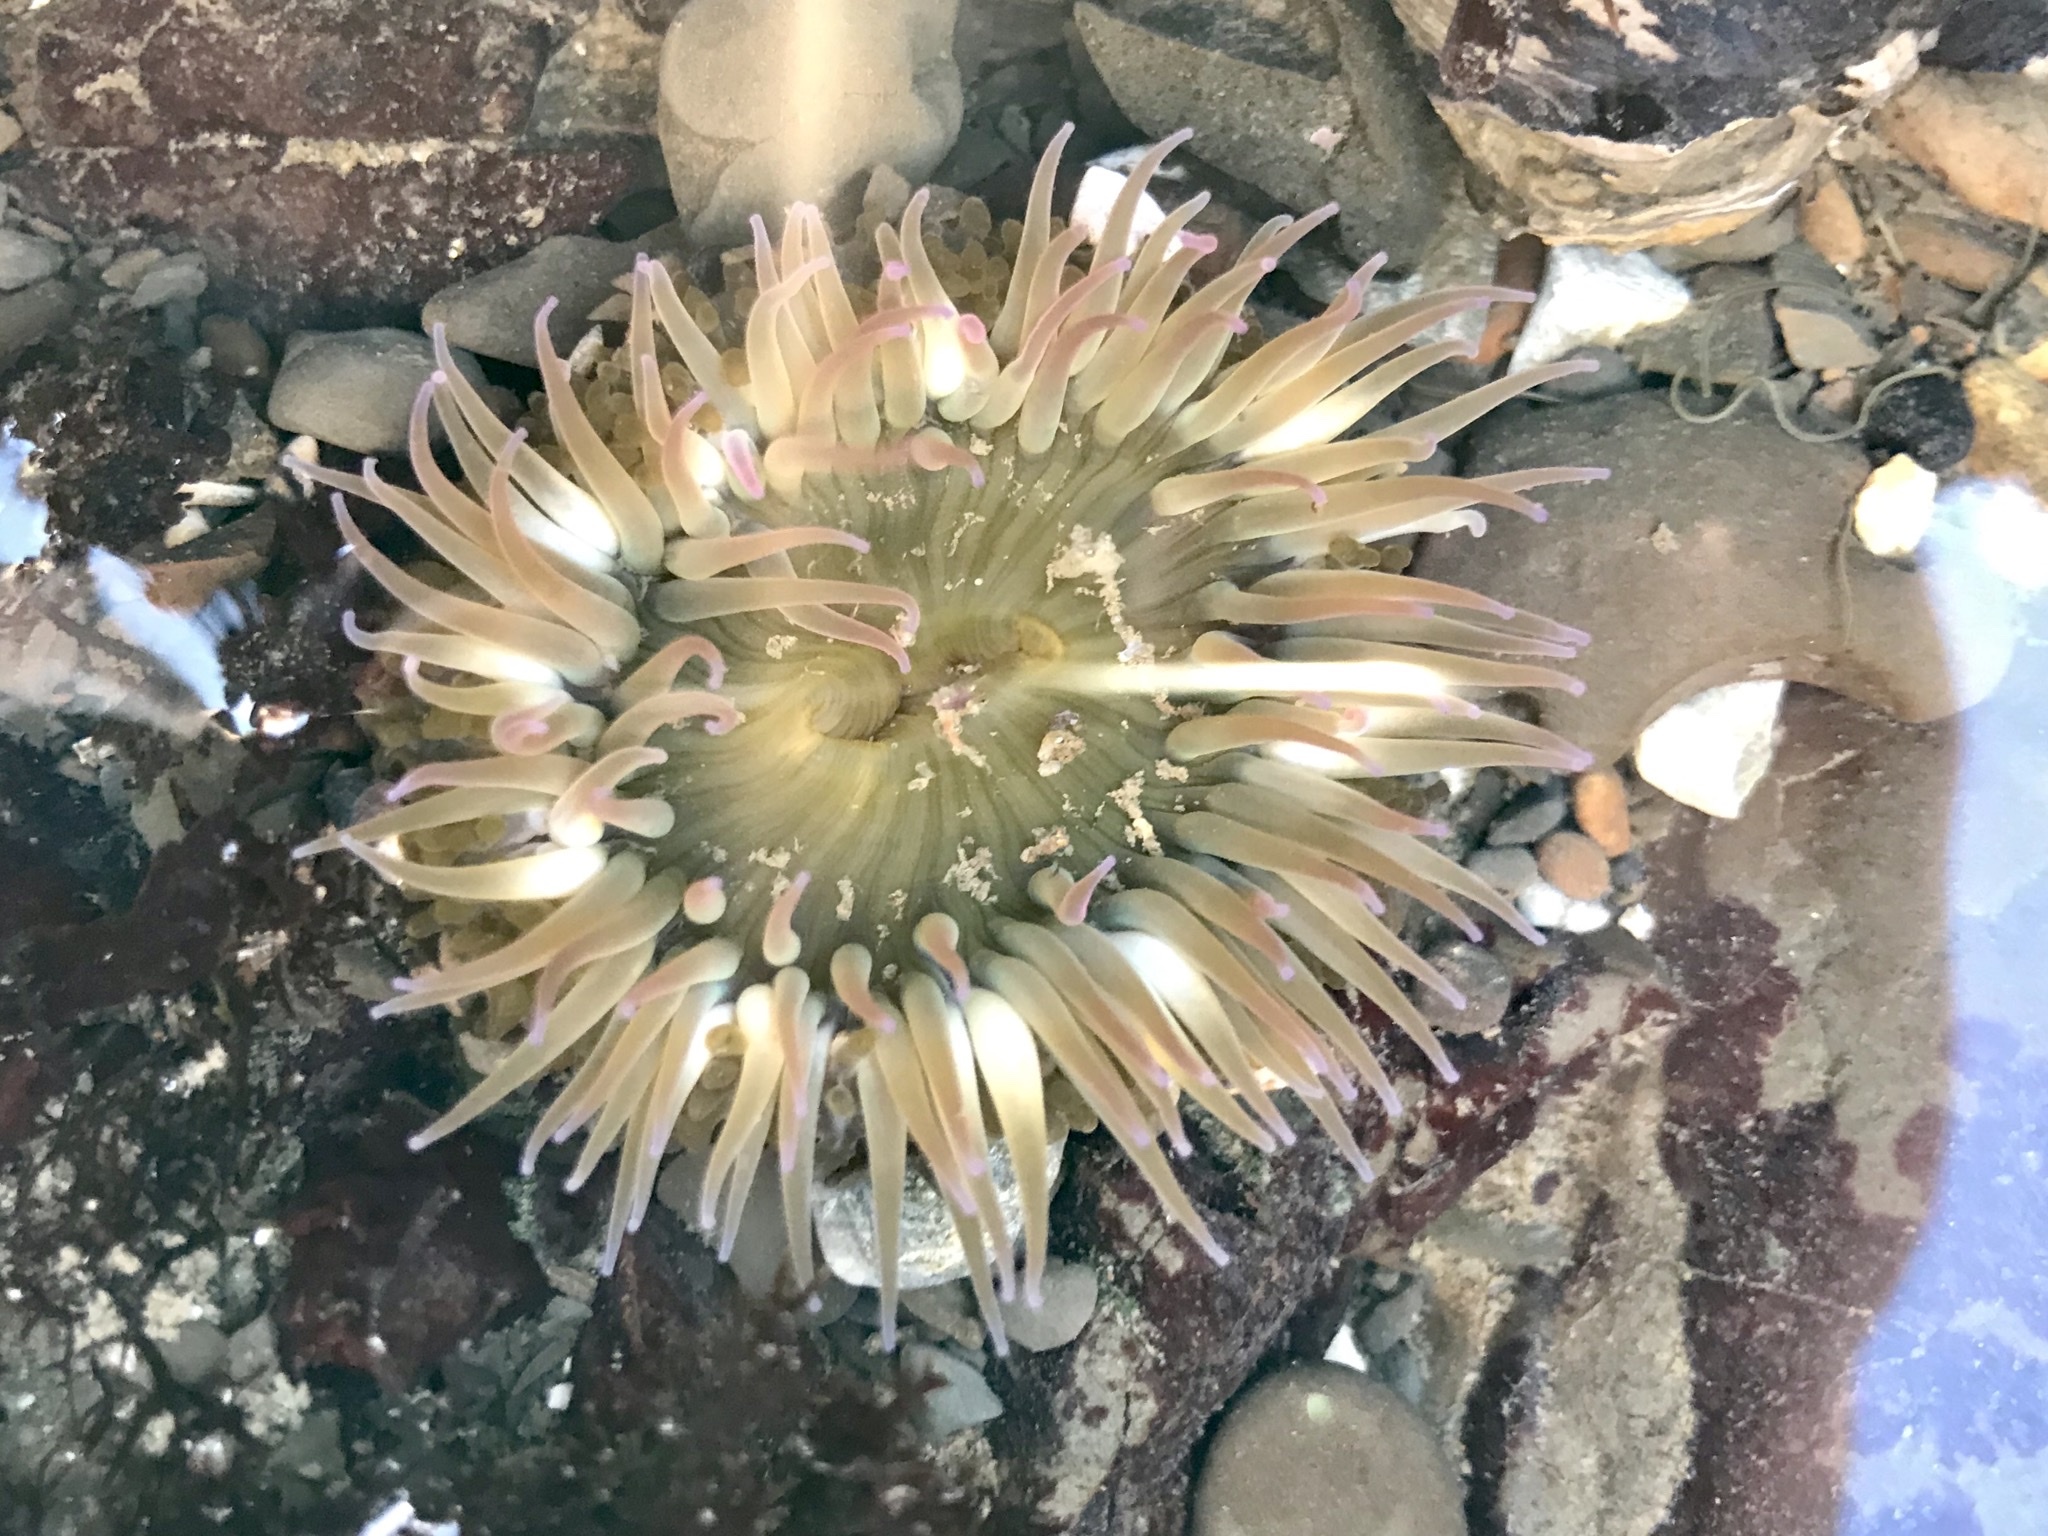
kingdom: Animalia
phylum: Cnidaria
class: Anthozoa
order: Actiniaria
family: Actiniidae
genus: Anthopleura
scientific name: Anthopleura elegantissima
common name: Clonal anemone
